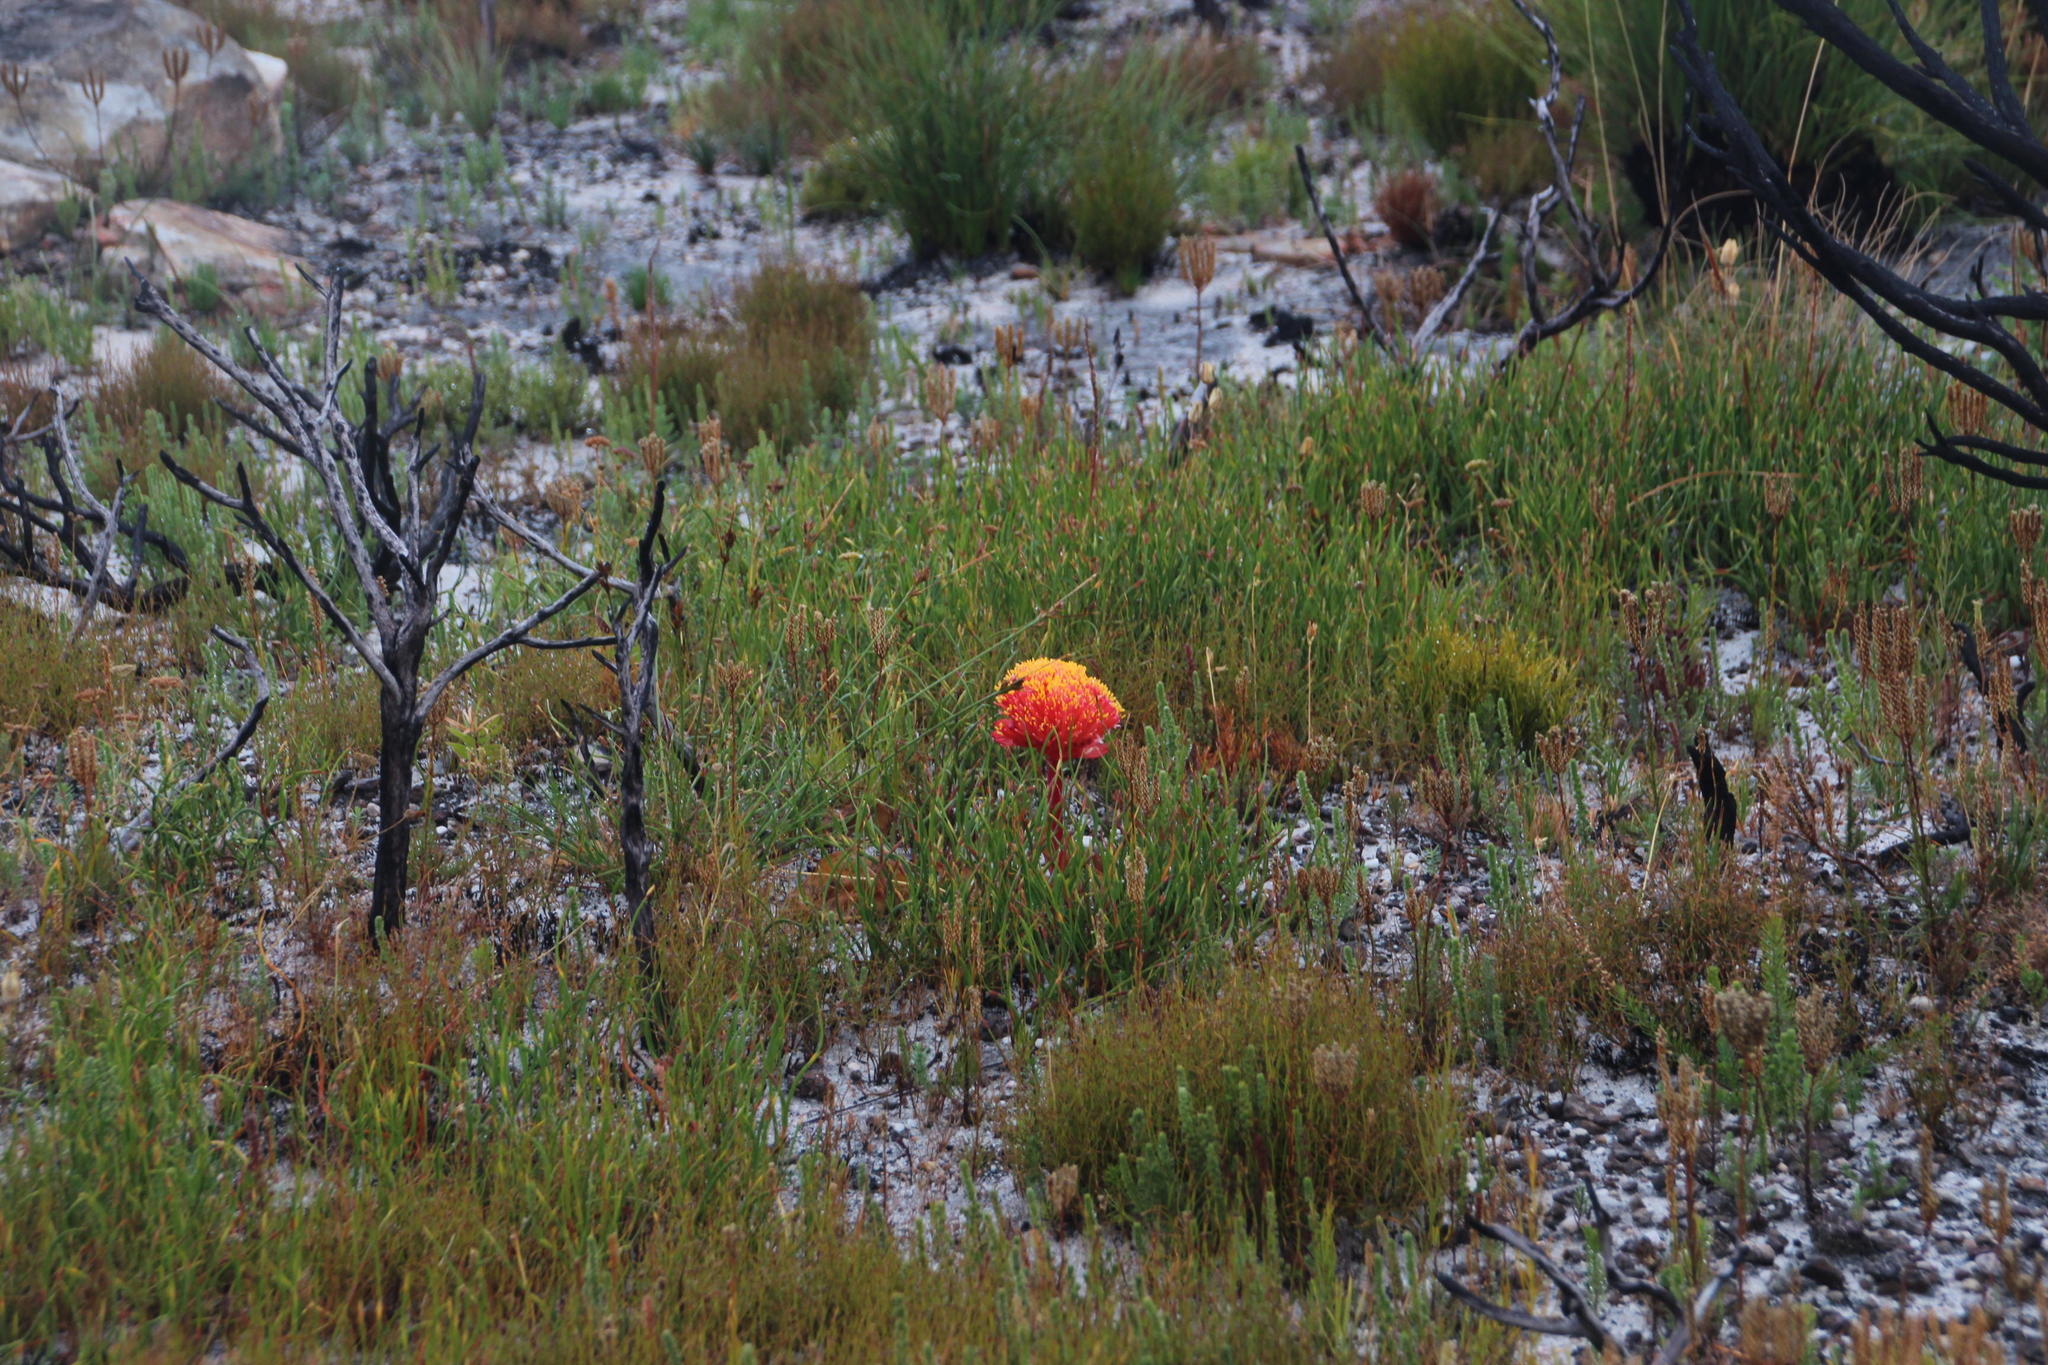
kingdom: Plantae
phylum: Tracheophyta
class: Liliopsida
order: Asparagales
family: Amaryllidaceae
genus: Haemanthus
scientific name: Haemanthus sanguineus
